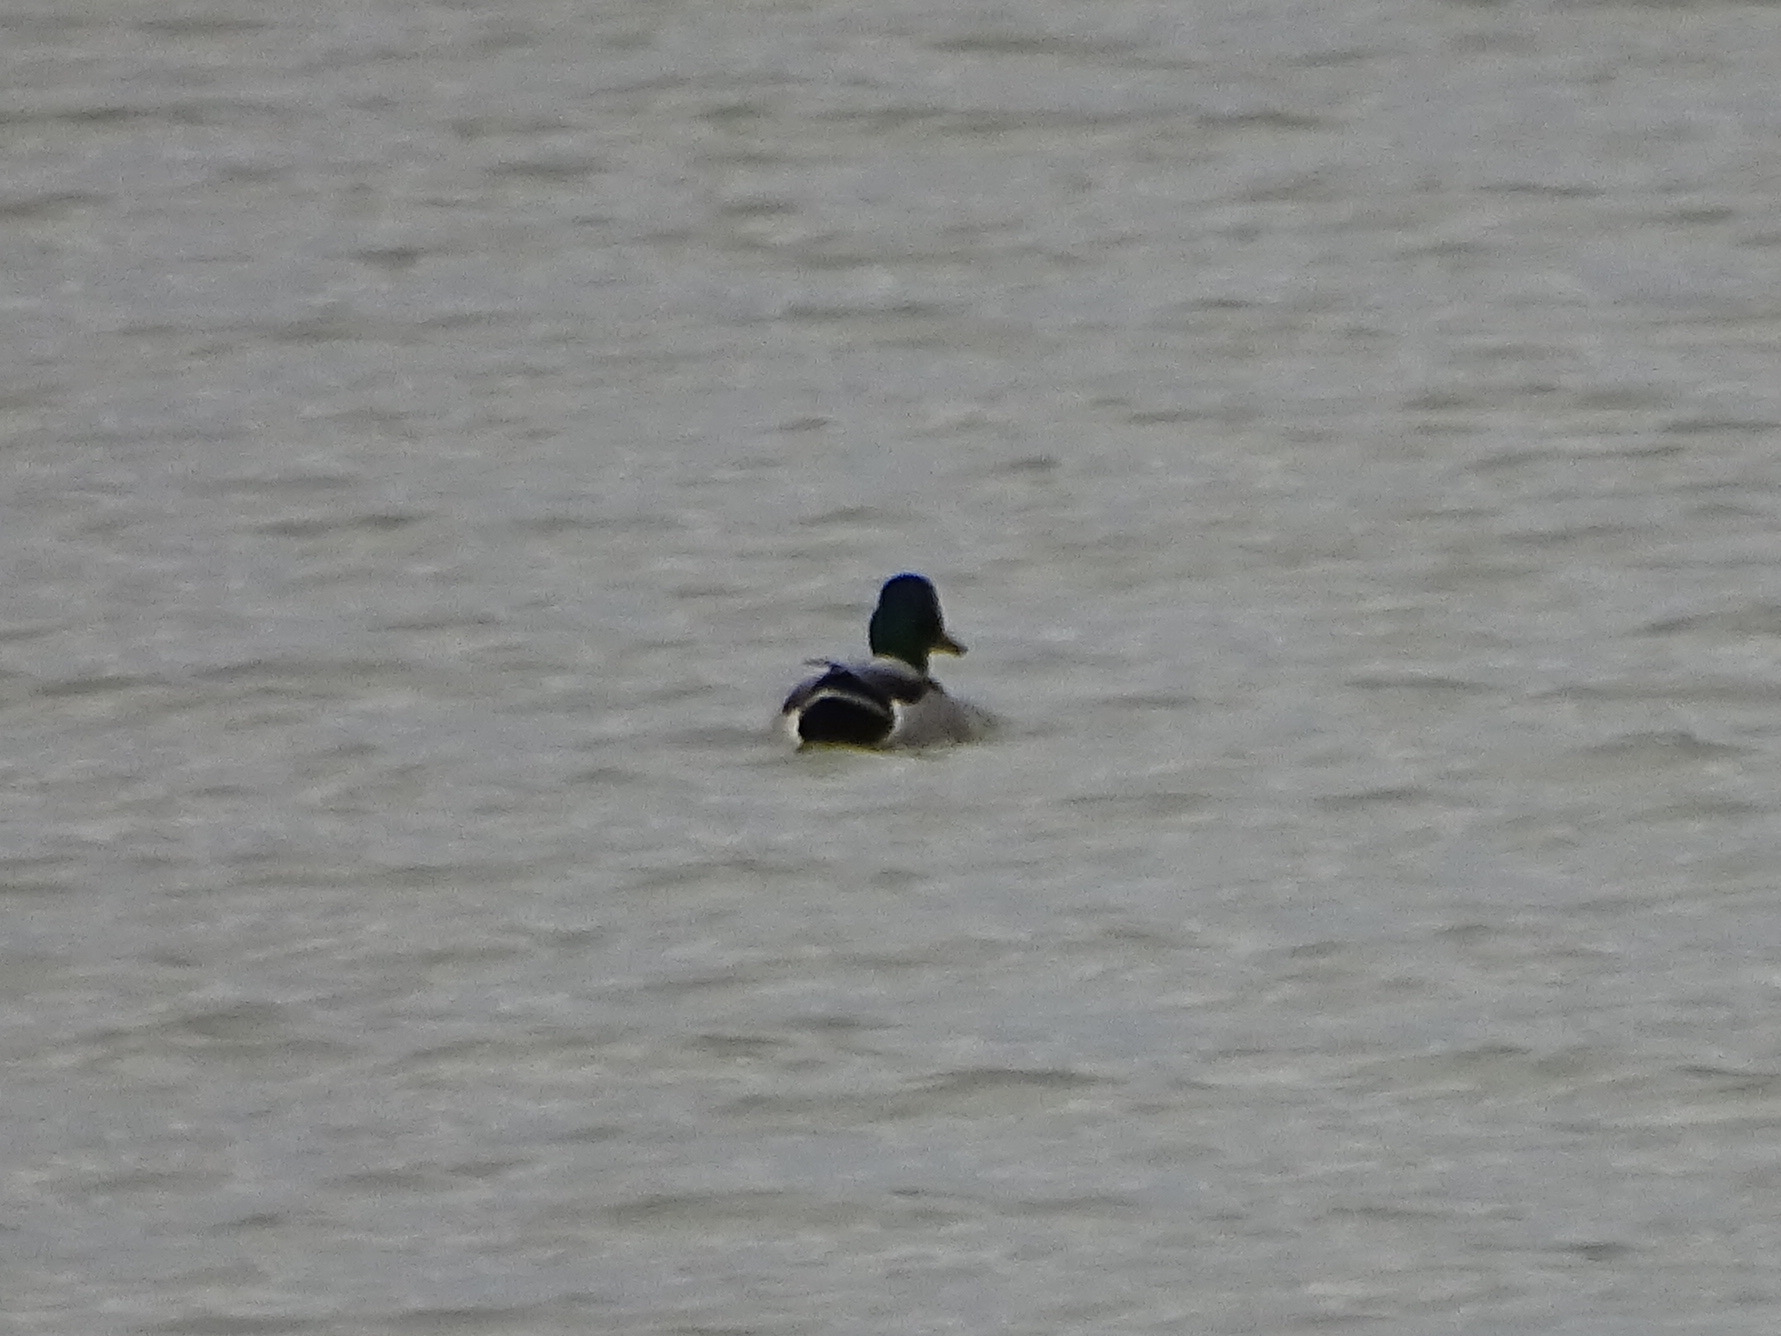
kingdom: Animalia
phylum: Chordata
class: Aves
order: Anseriformes
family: Anatidae
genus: Anas
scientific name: Anas platyrhynchos
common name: Mallard
